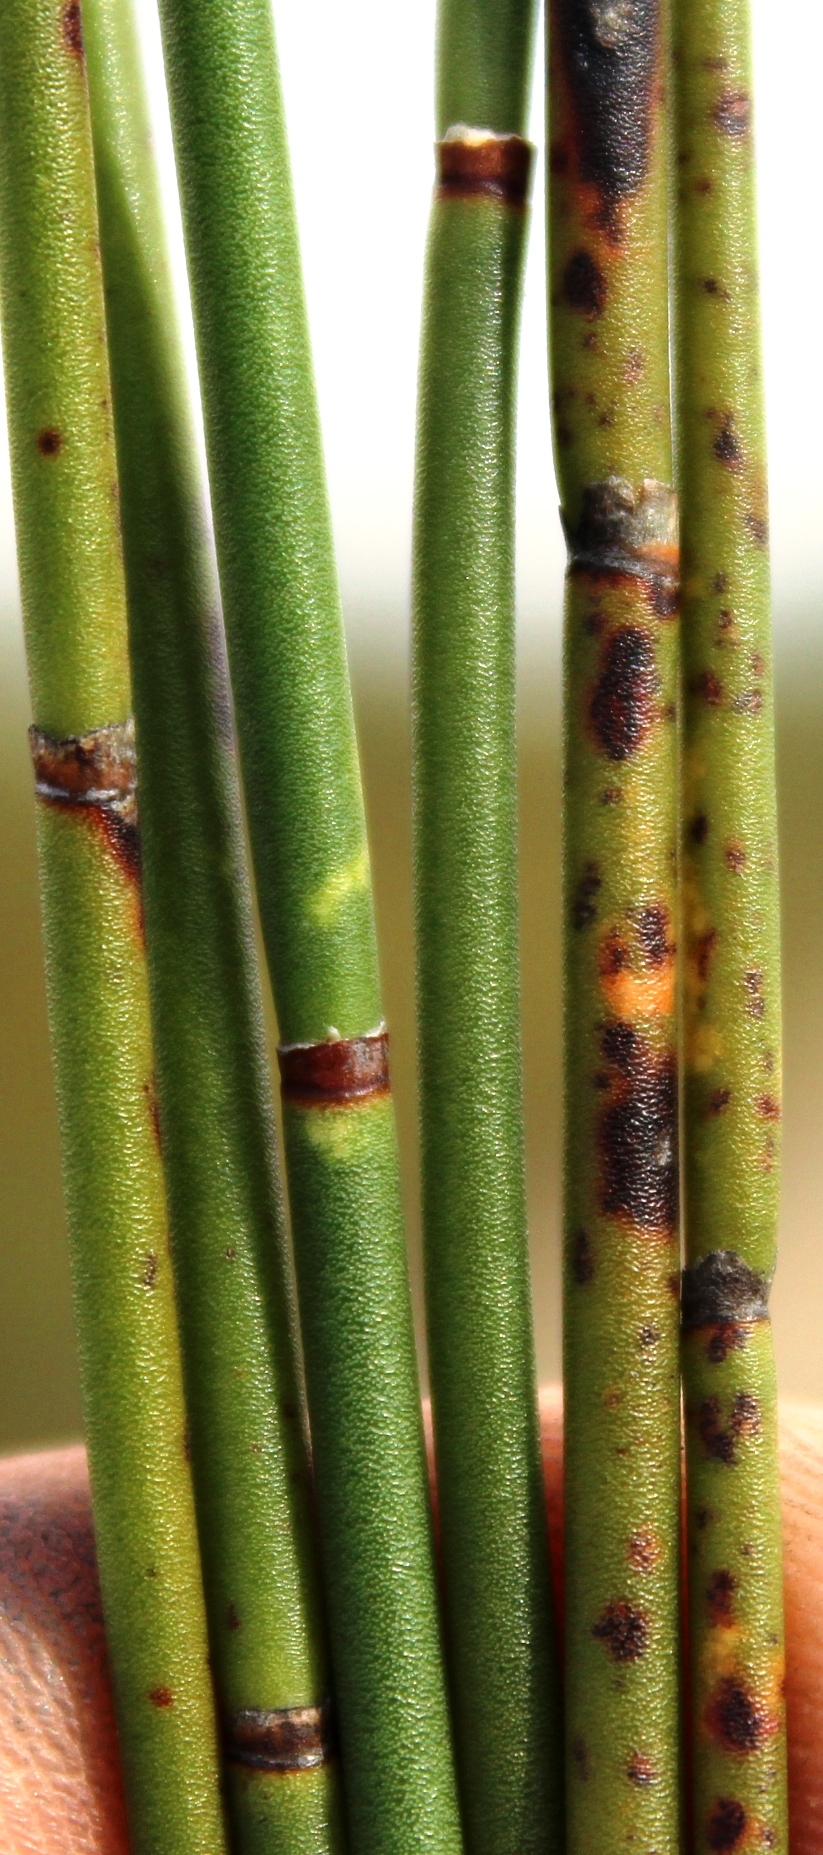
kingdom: Plantae
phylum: Tracheophyta
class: Liliopsida
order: Poales
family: Restionaceae
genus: Elegia
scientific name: Elegia macrocarpa
